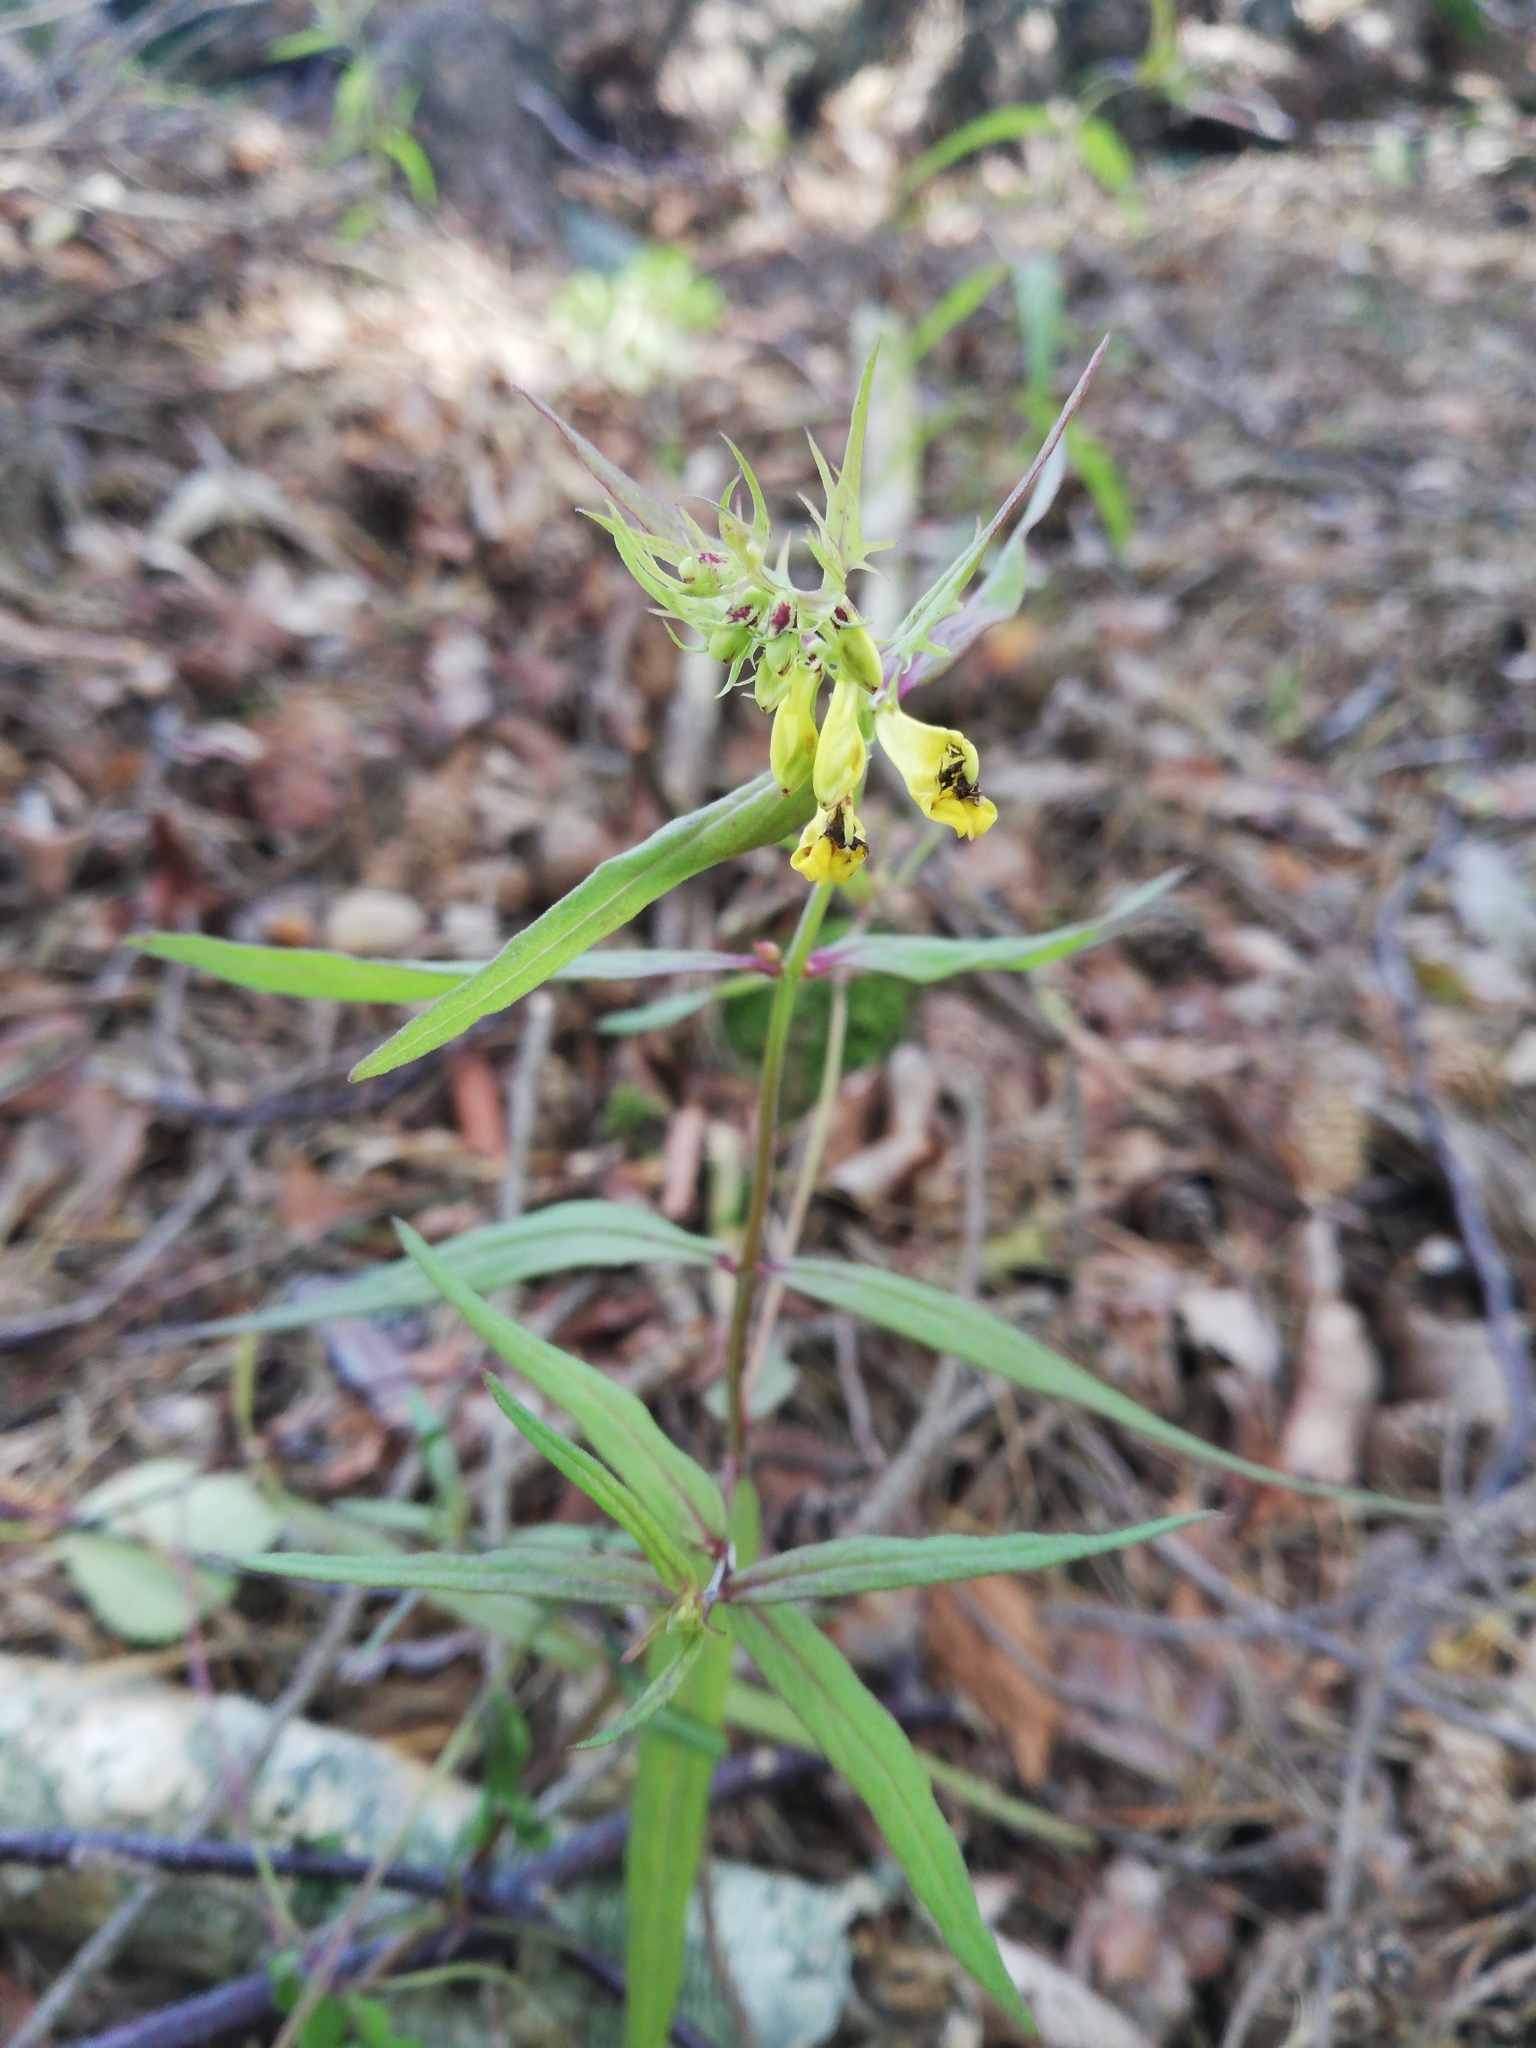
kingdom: Plantae
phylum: Tracheophyta
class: Magnoliopsida
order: Lamiales
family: Orobanchaceae
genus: Melampyrum
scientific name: Melampyrum pratense
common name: Common cow-wheat
